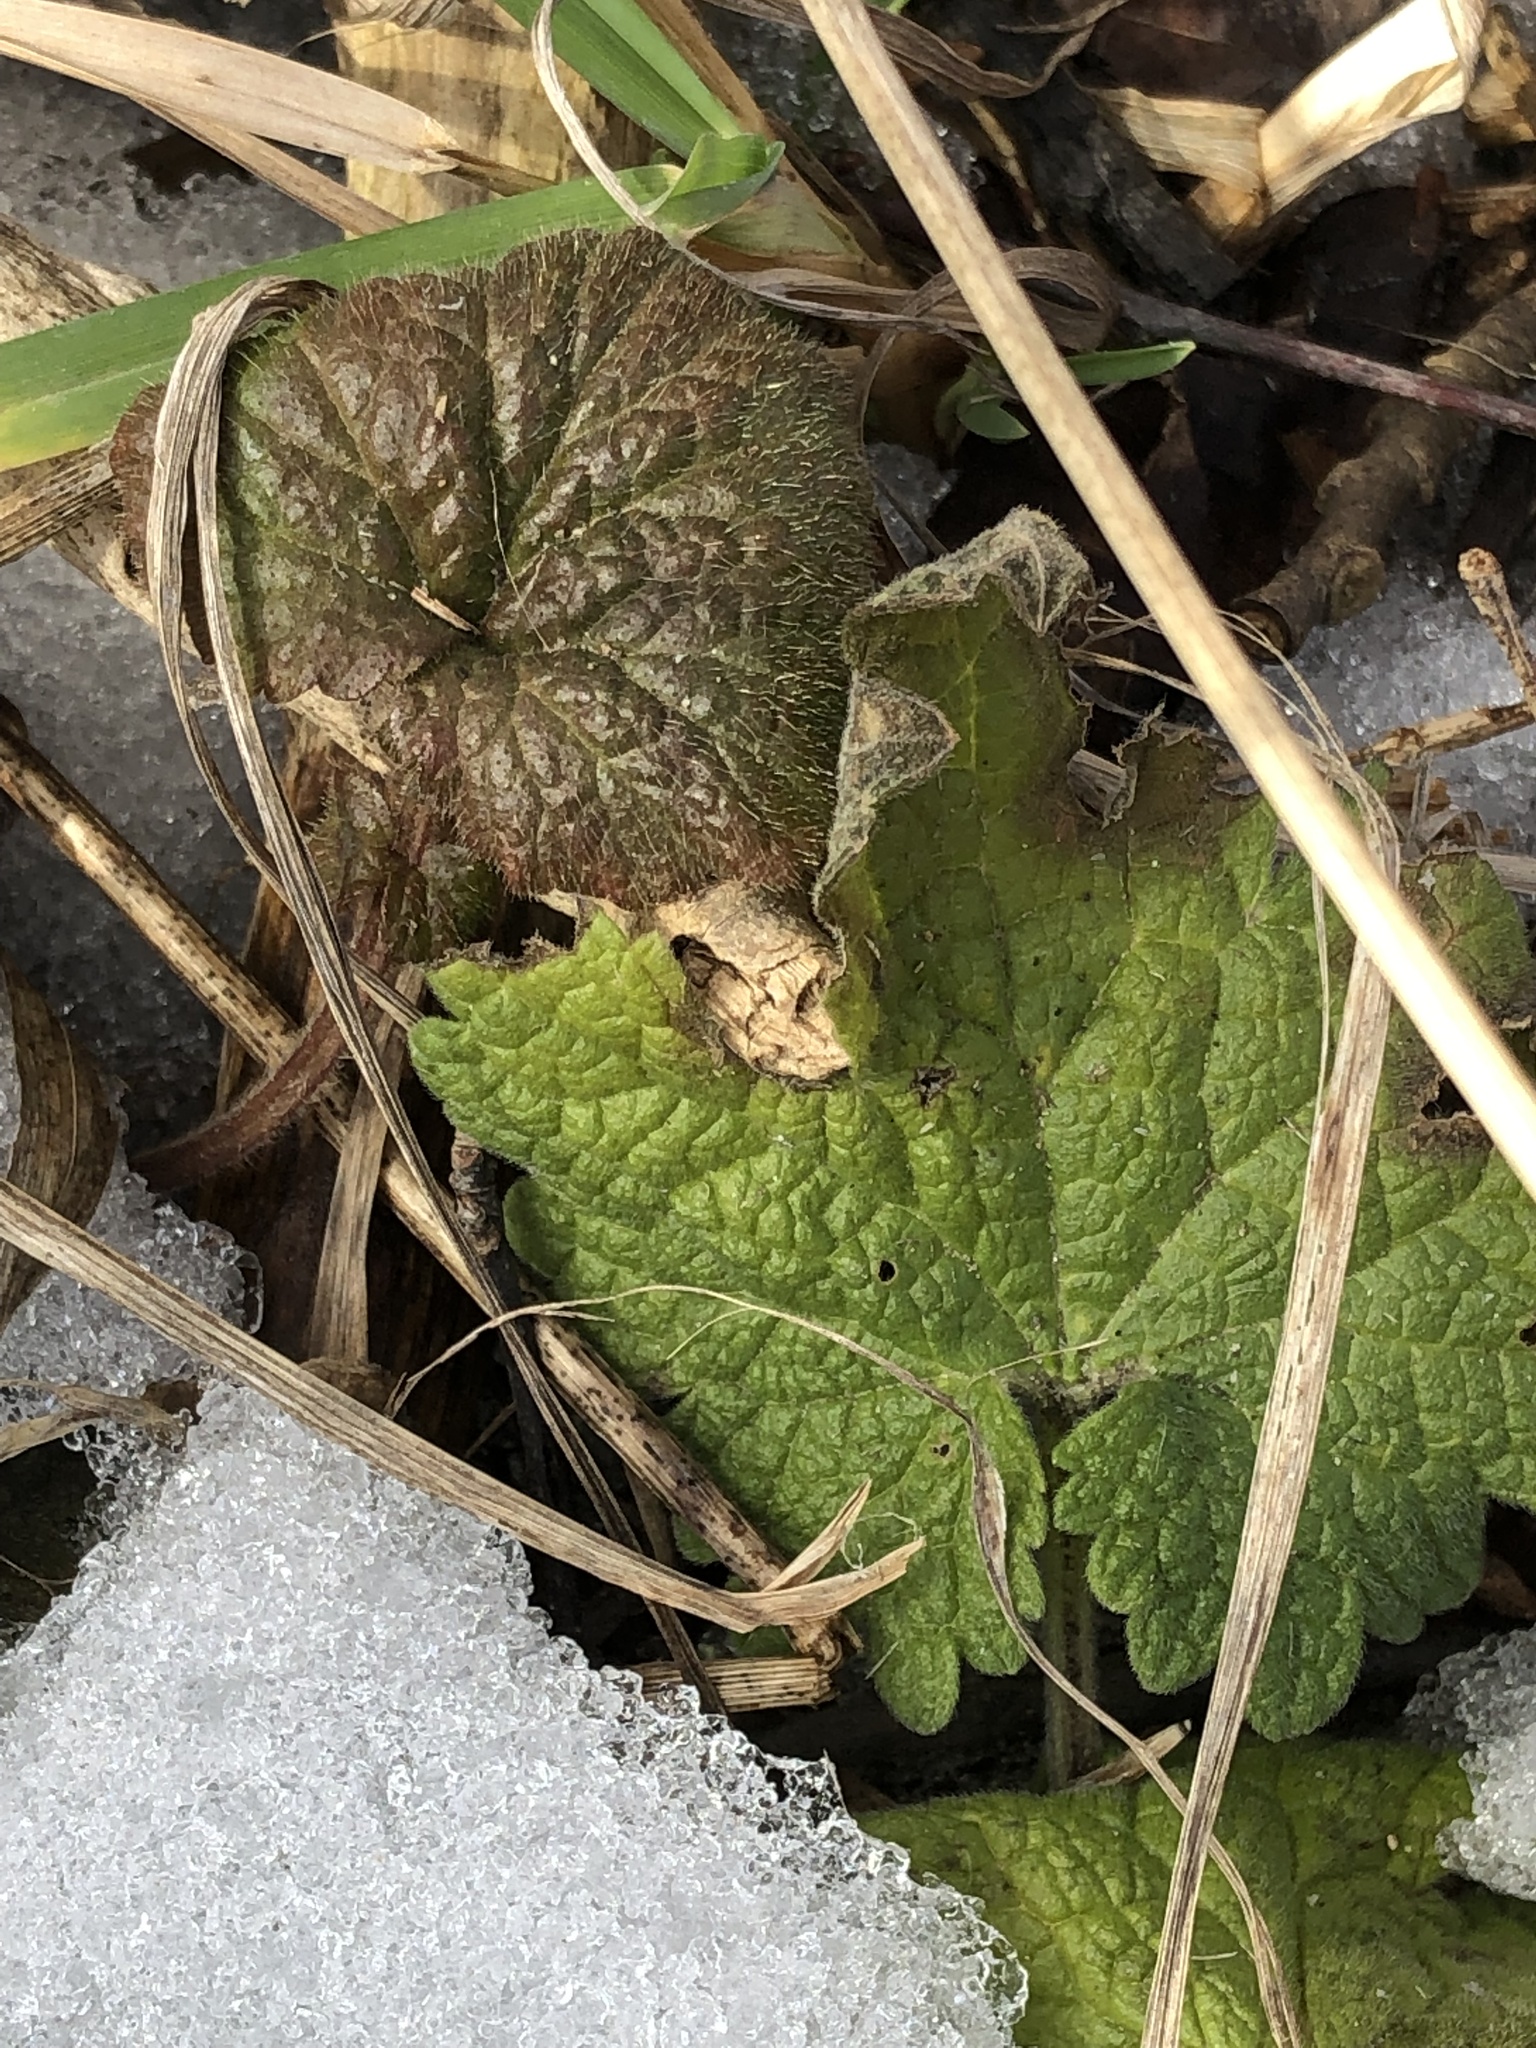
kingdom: Plantae
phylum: Tracheophyta
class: Magnoliopsida
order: Lamiales
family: Lamiaceae
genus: Leonurus
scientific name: Leonurus cardiaca
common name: Motherwort
